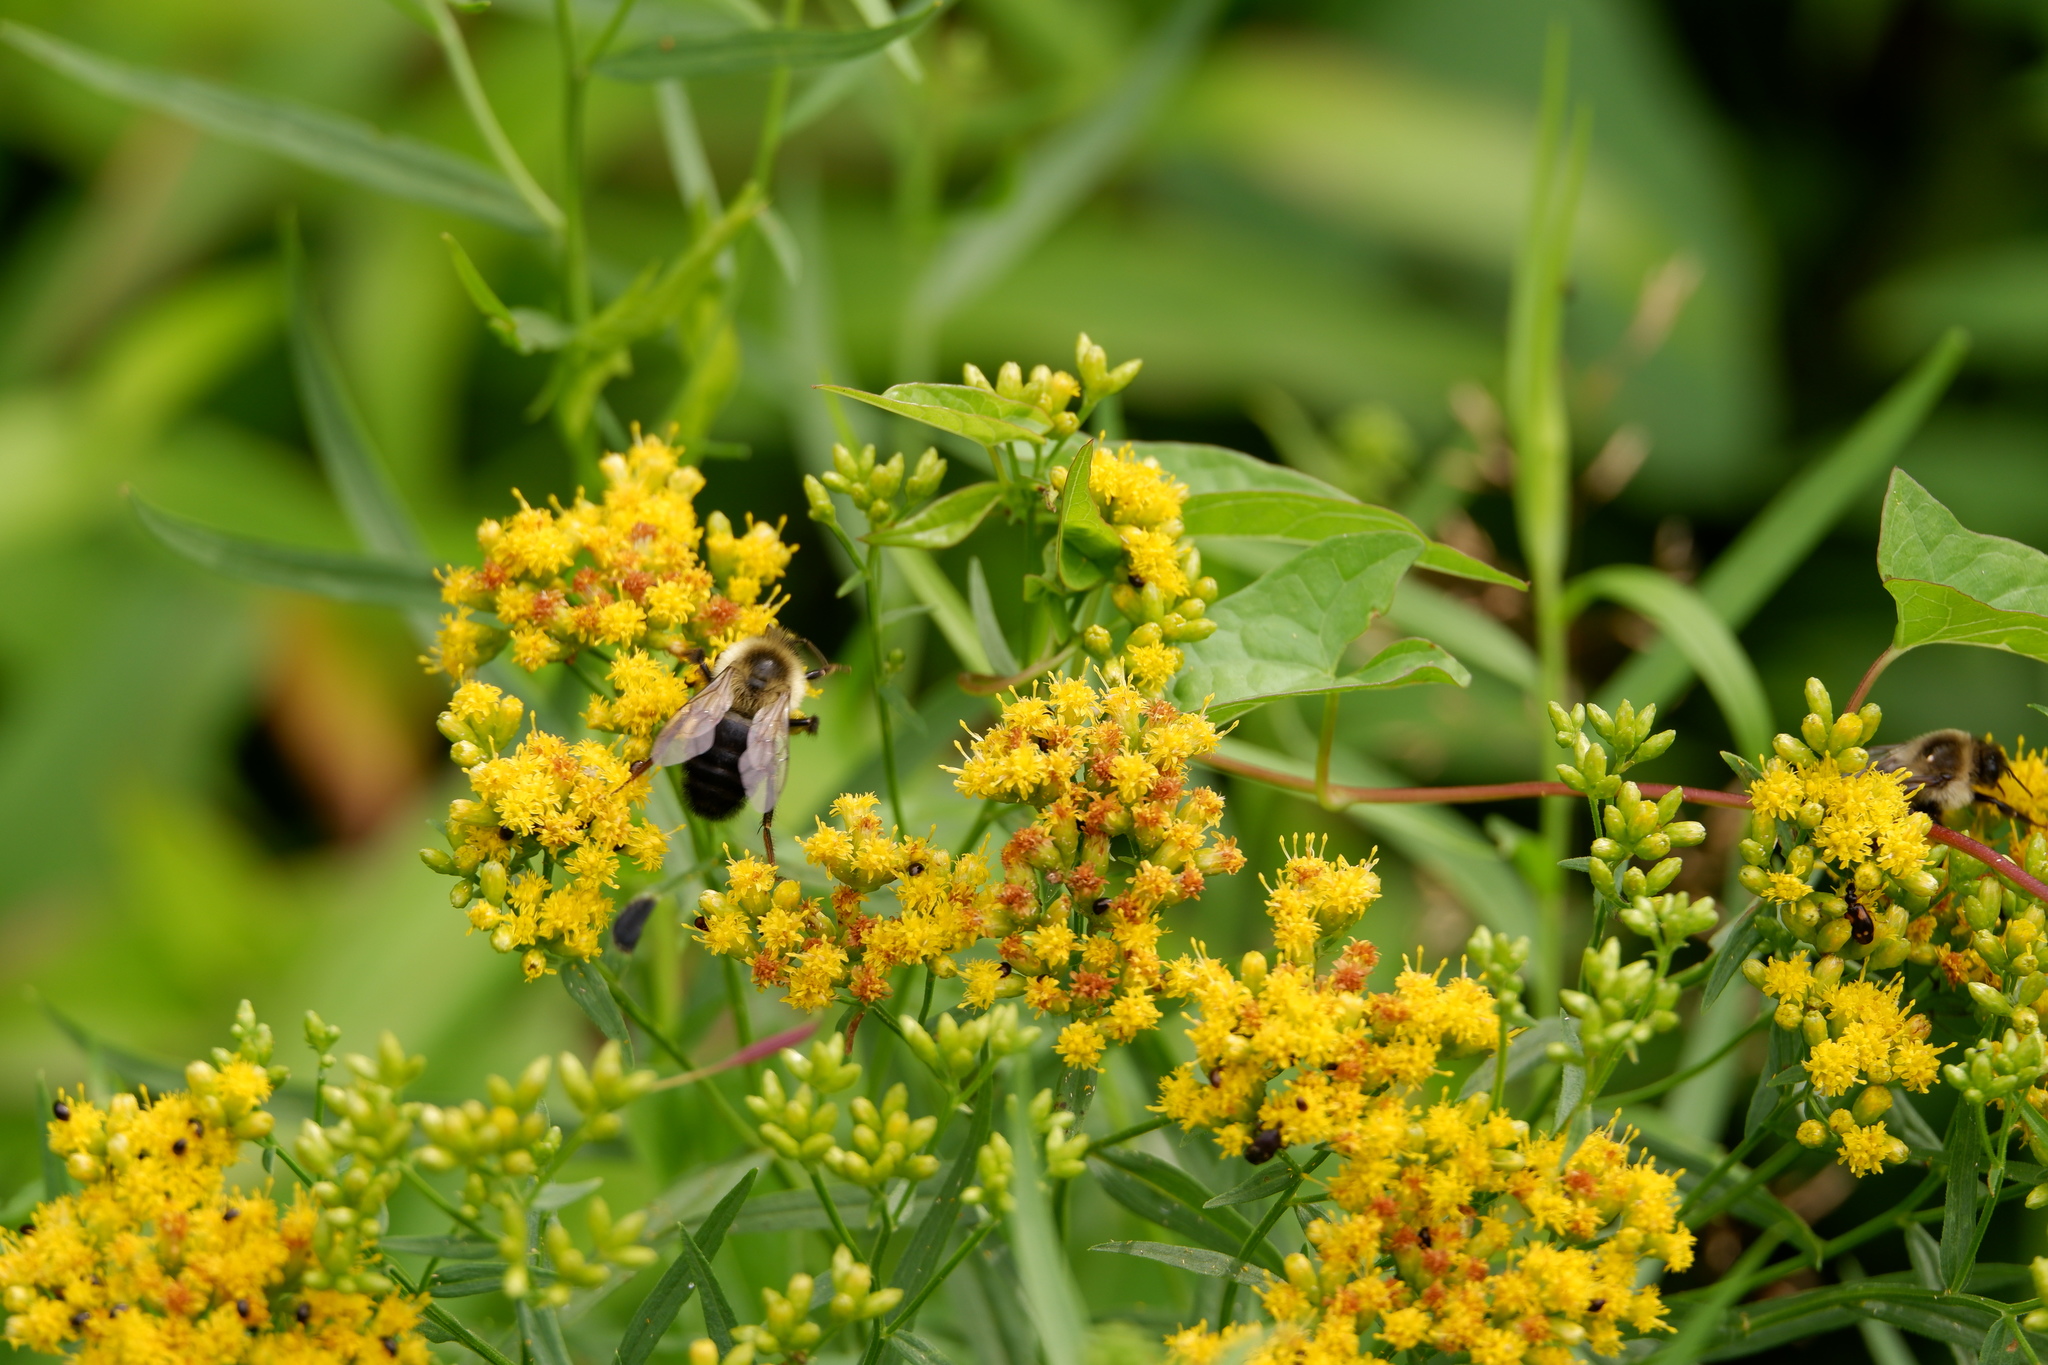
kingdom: Animalia
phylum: Arthropoda
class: Insecta
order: Hymenoptera
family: Apidae
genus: Bombus
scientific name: Bombus impatiens
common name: Common eastern bumble bee
